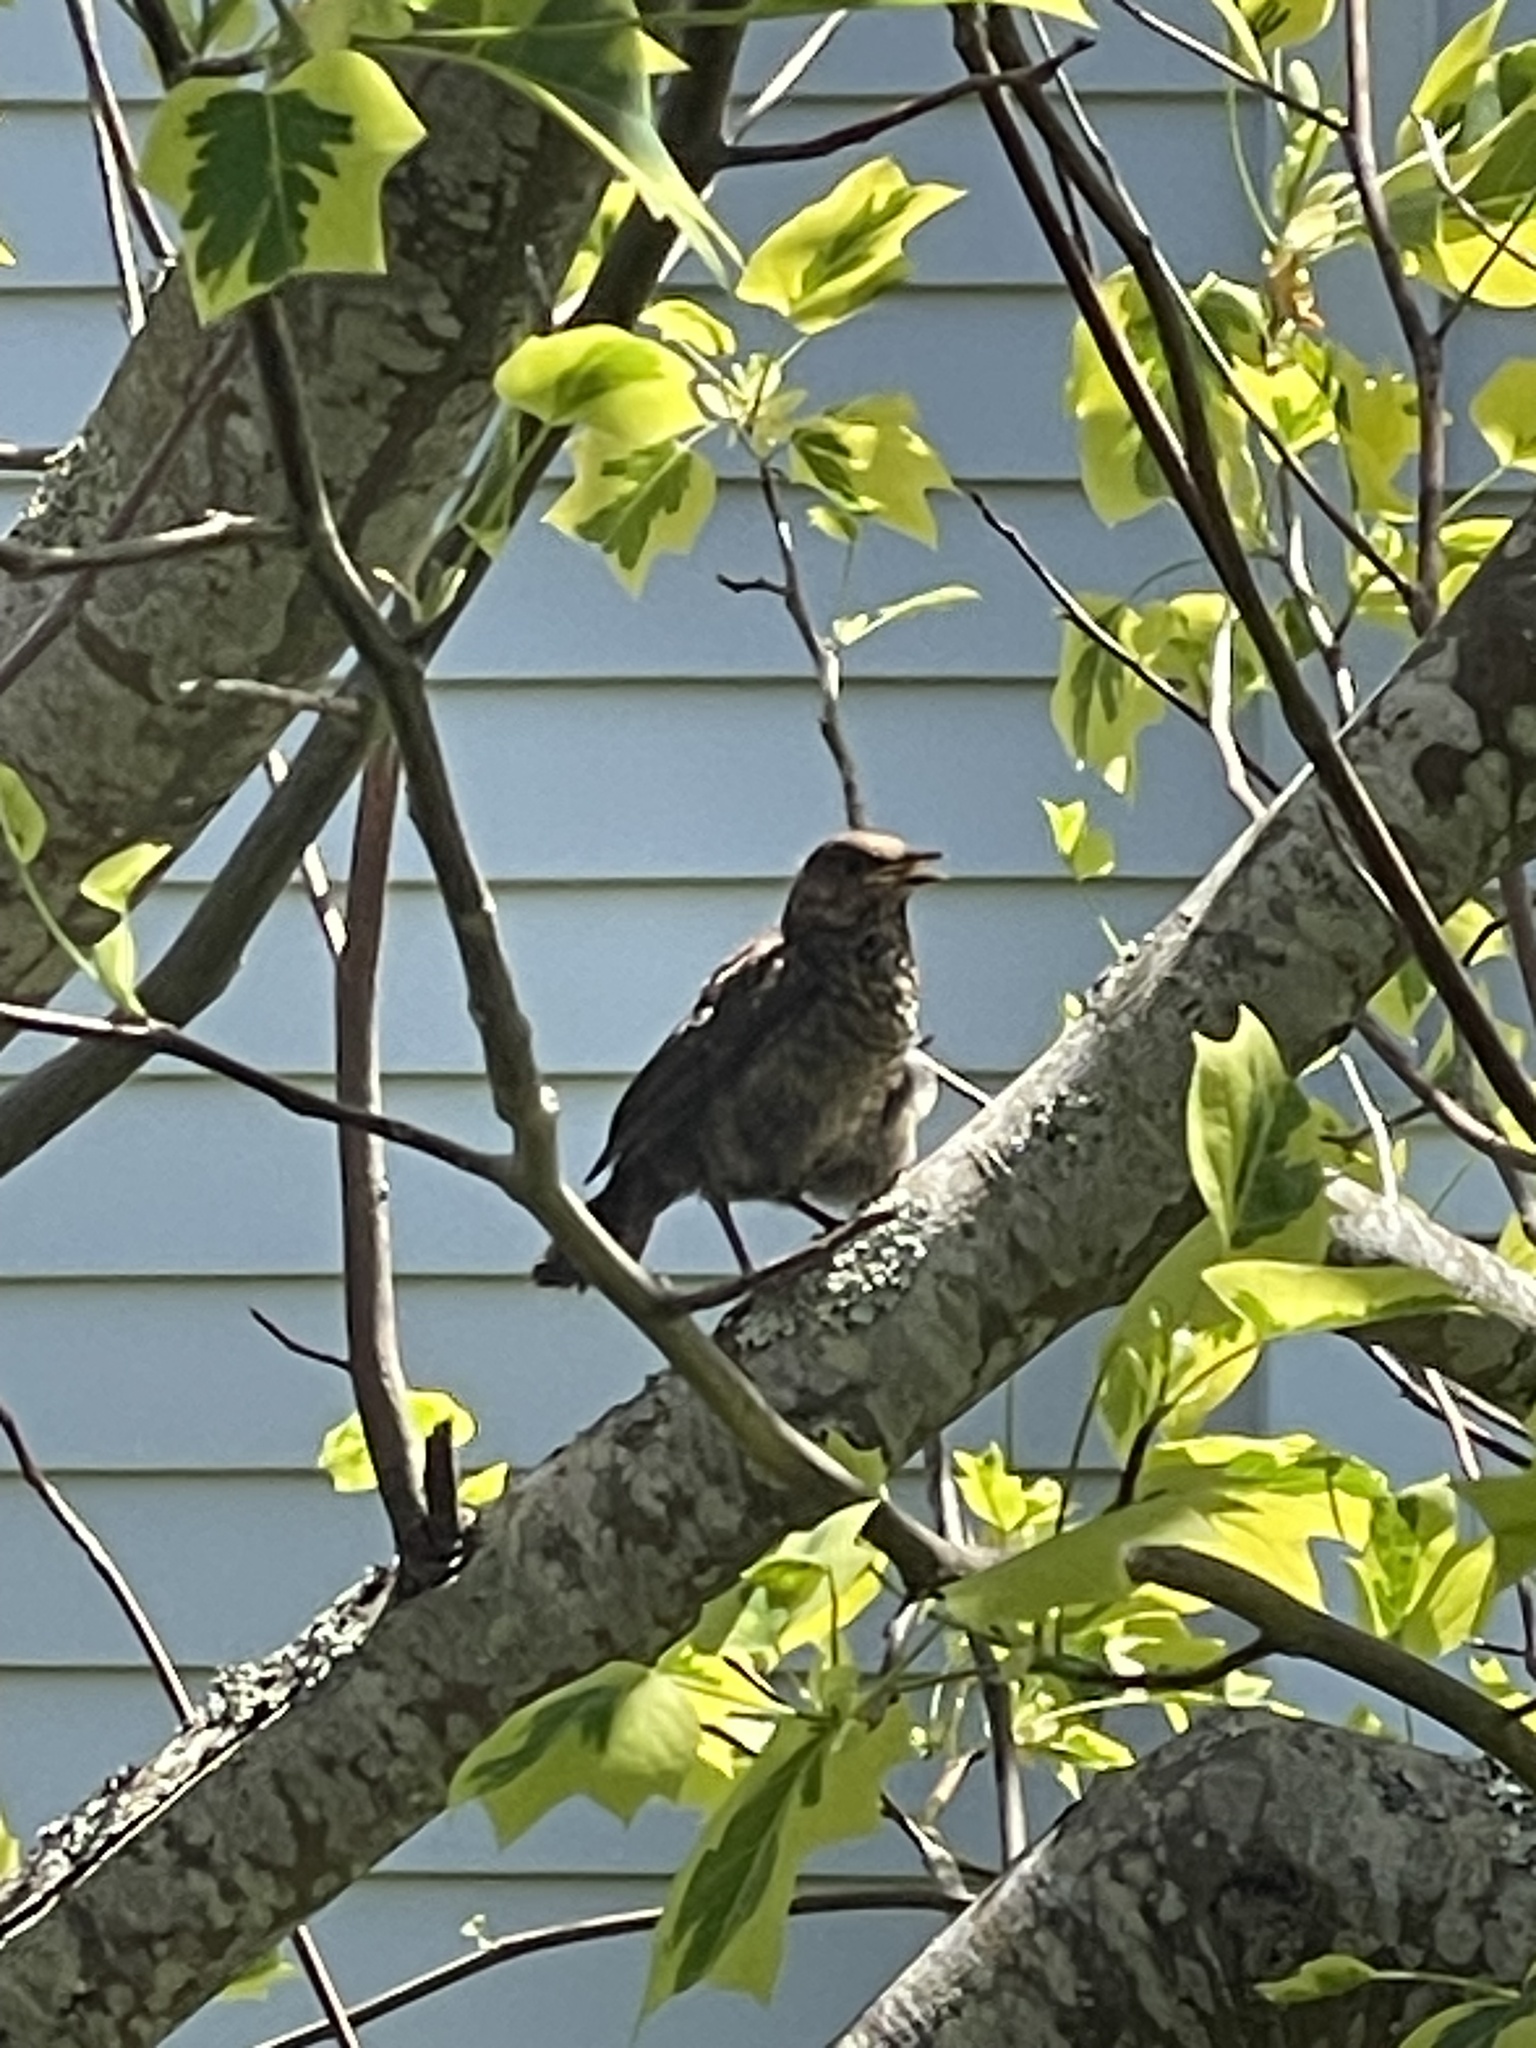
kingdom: Animalia
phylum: Chordata
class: Aves
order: Passeriformes
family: Turdidae
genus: Turdus
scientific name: Turdus merula
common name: Common blackbird
